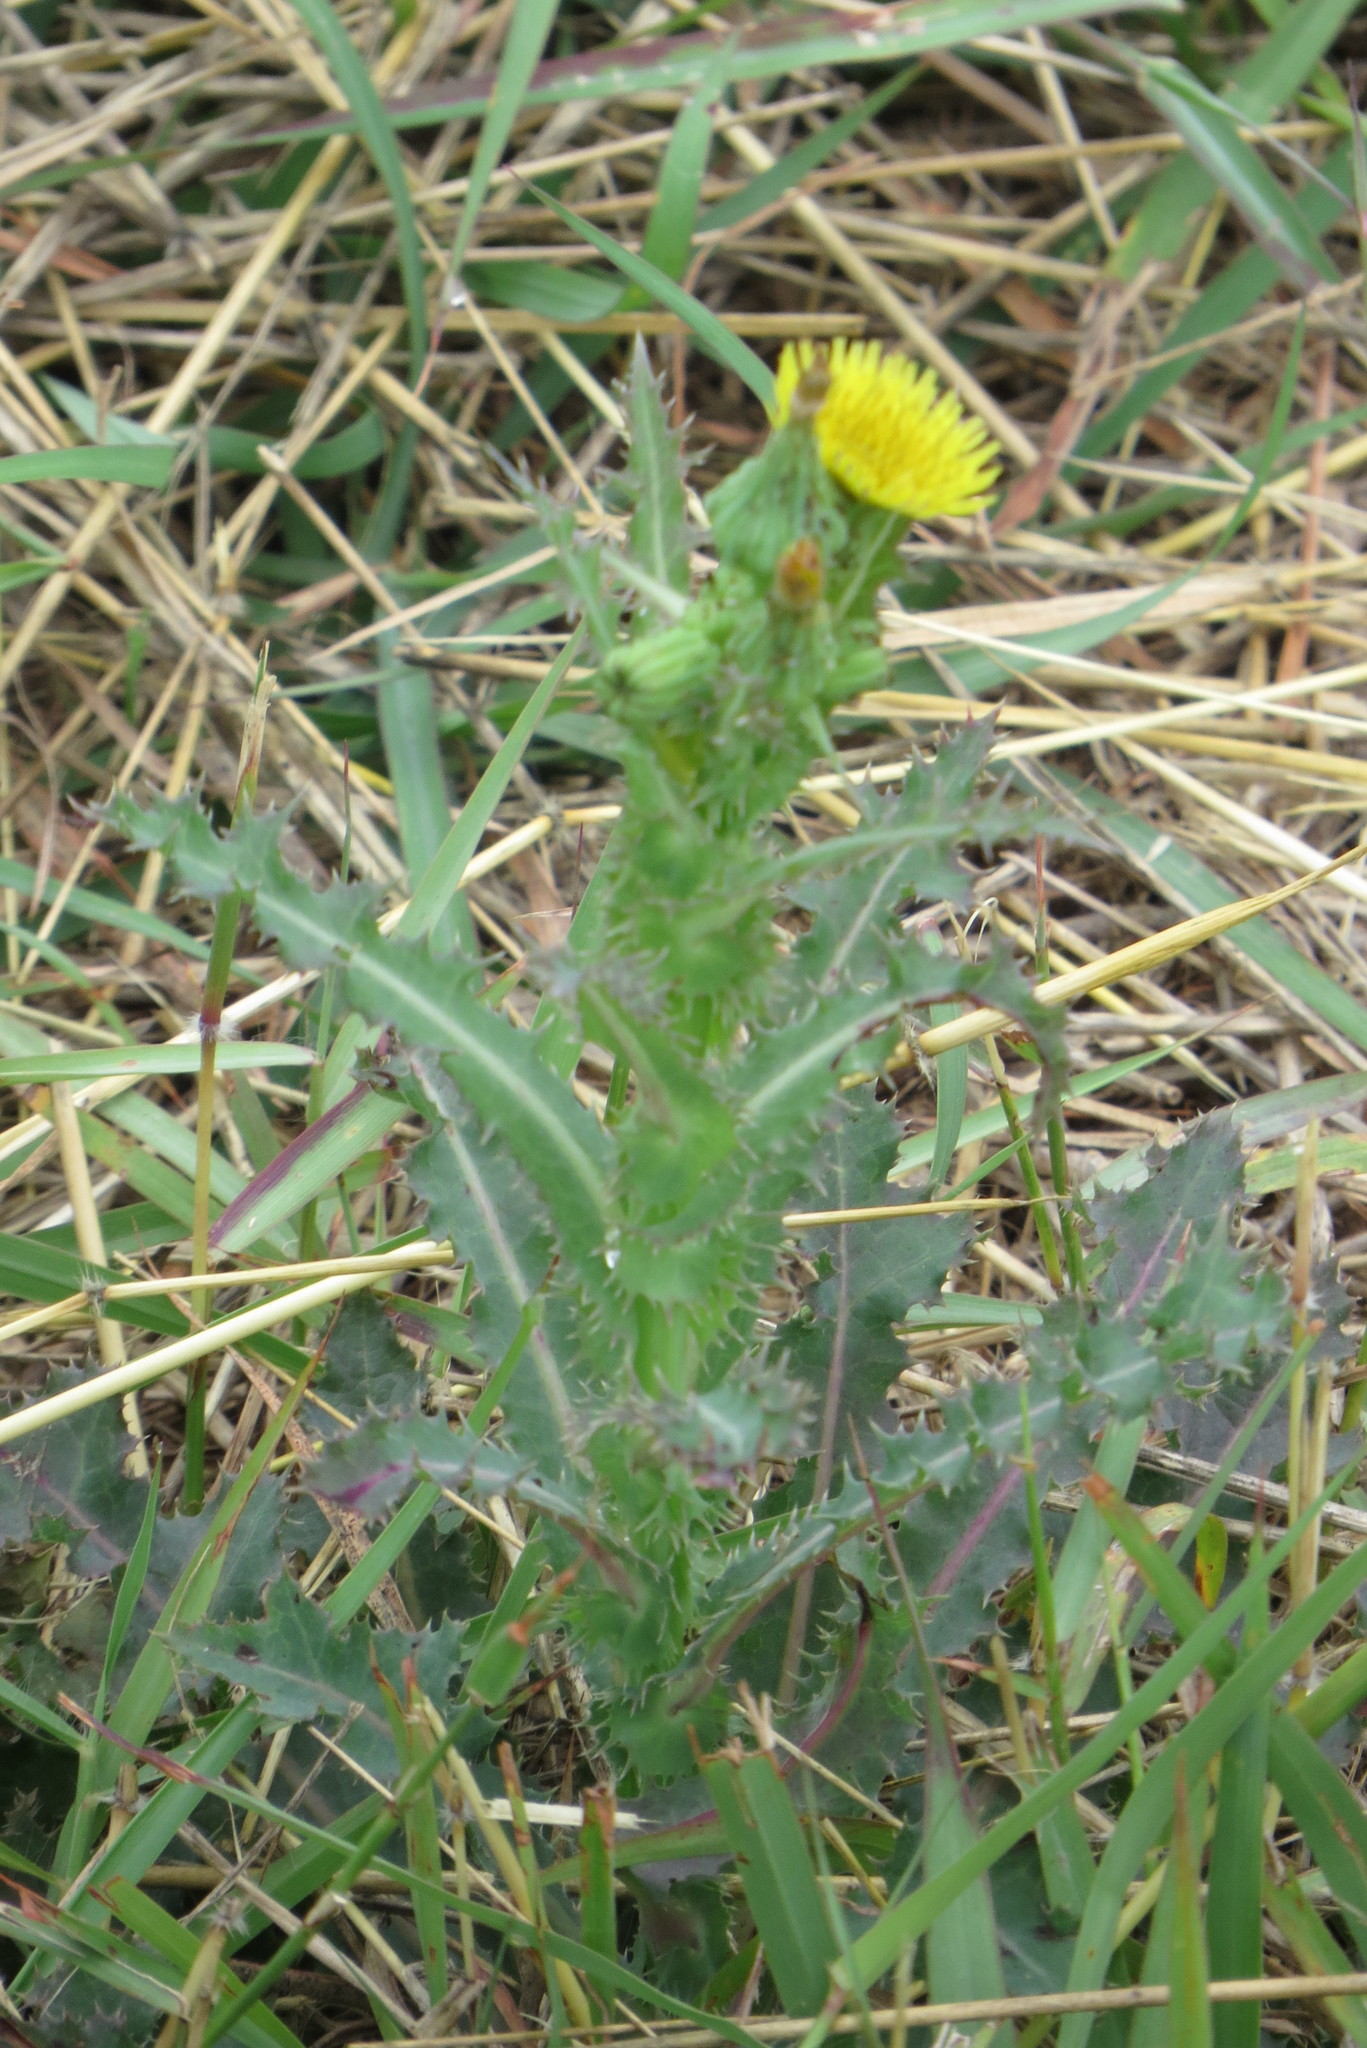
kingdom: Plantae
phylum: Tracheophyta
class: Magnoliopsida
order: Asterales
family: Asteraceae
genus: Sonchus
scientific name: Sonchus asper
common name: Prickly sow-thistle
